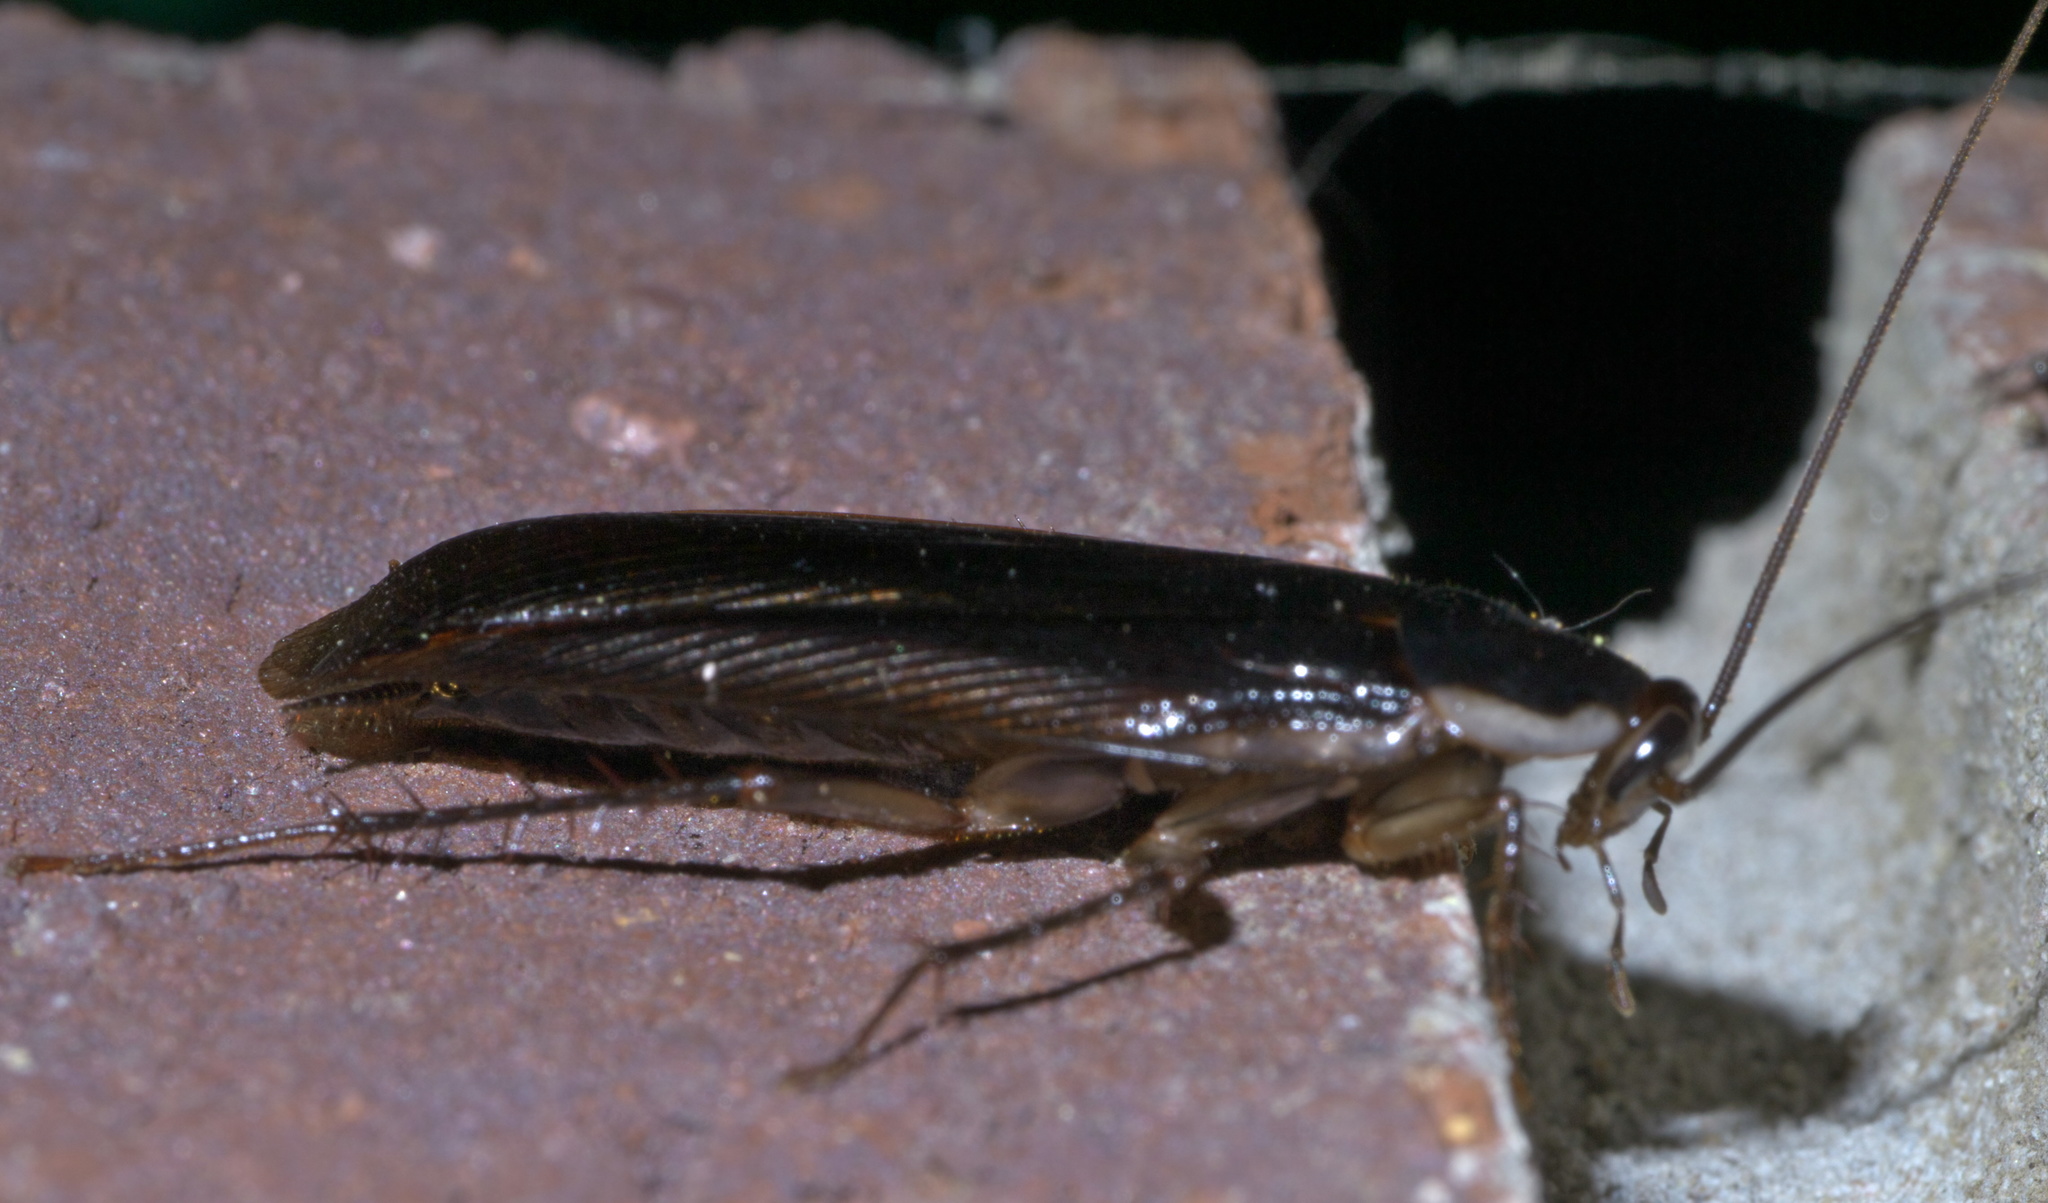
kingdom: Animalia
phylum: Arthropoda
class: Insecta
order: Blattodea
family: Ectobiidae
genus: Parcoblatta
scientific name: Parcoblatta pennsylvanica
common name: Pennsylvanian wood cockroach
